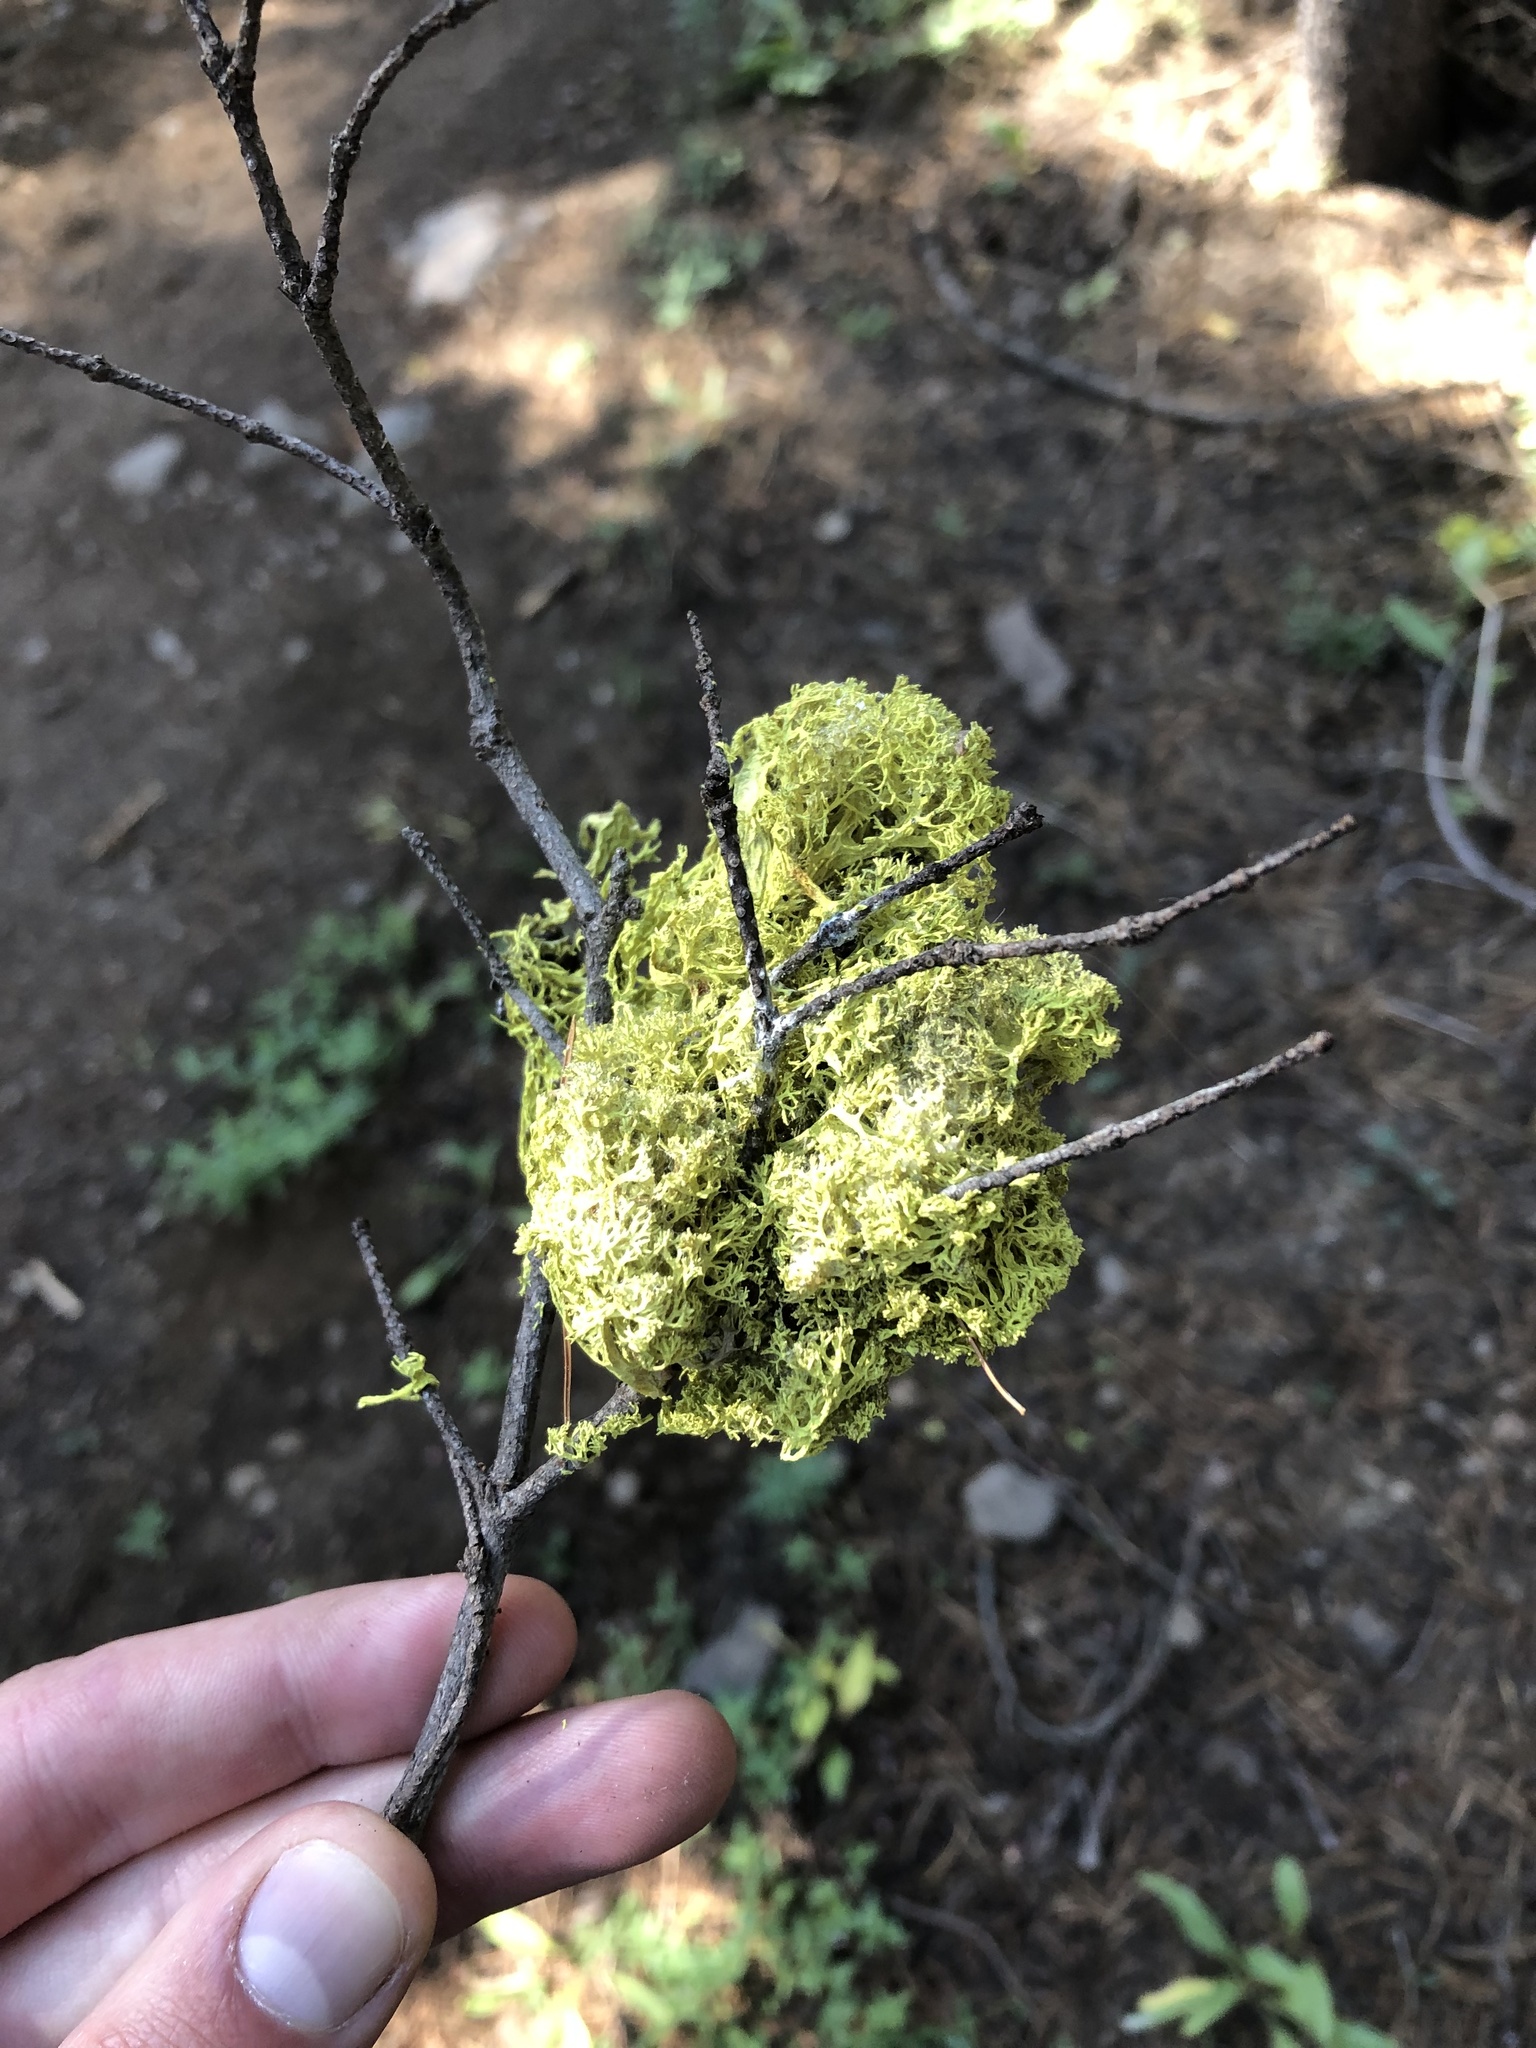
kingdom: Fungi
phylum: Ascomycota
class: Lecanoromycetes
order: Lecanorales
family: Parmeliaceae
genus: Letharia
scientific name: Letharia columbiana
